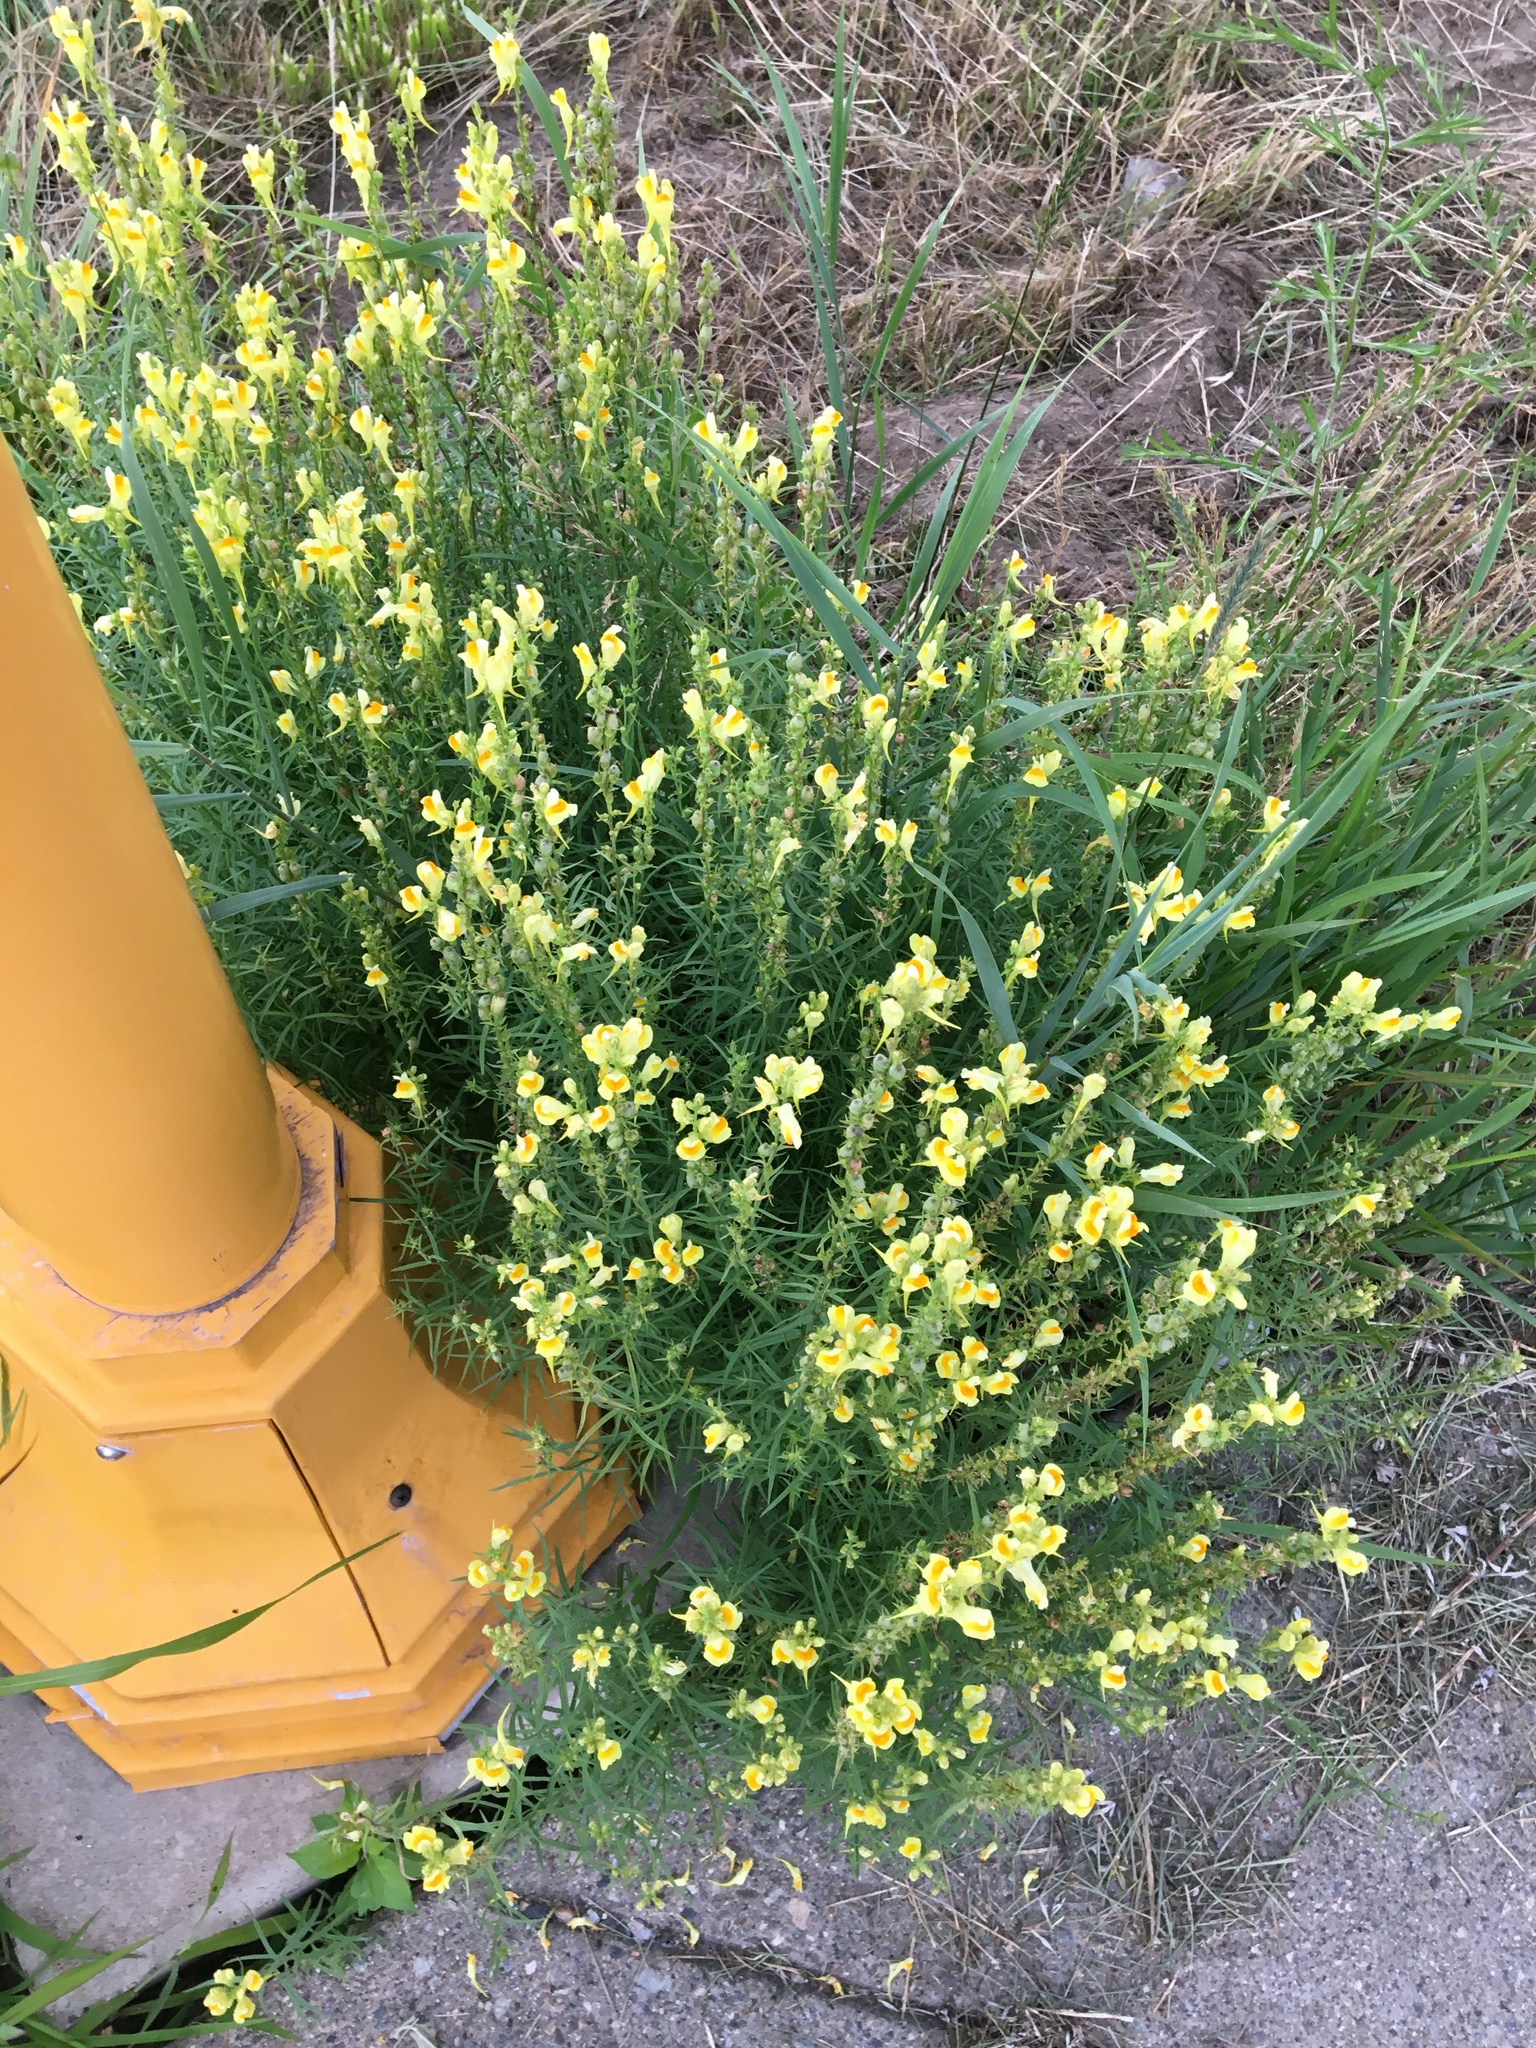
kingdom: Plantae
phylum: Tracheophyta
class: Magnoliopsida
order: Lamiales
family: Plantaginaceae
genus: Linaria
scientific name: Linaria vulgaris
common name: Butter and eggs
